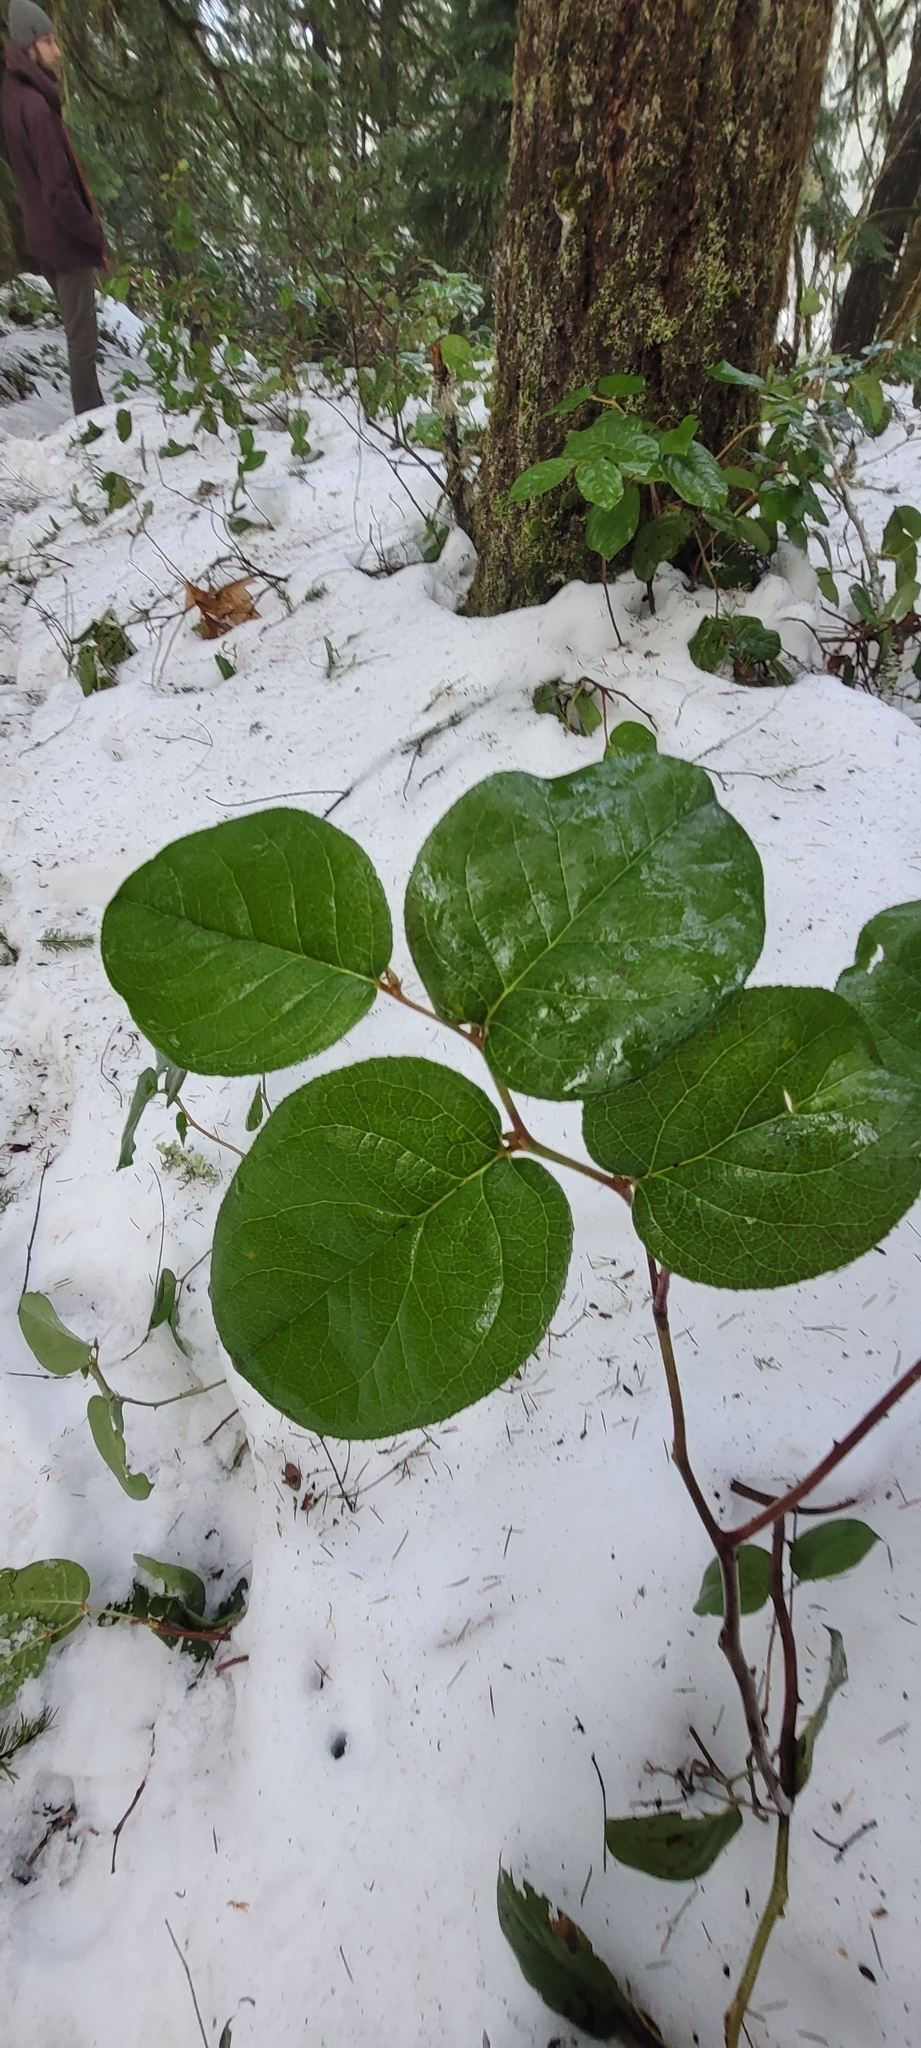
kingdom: Plantae
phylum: Tracheophyta
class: Magnoliopsida
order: Ericales
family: Ericaceae
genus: Gaultheria
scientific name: Gaultheria shallon
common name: Shallon
